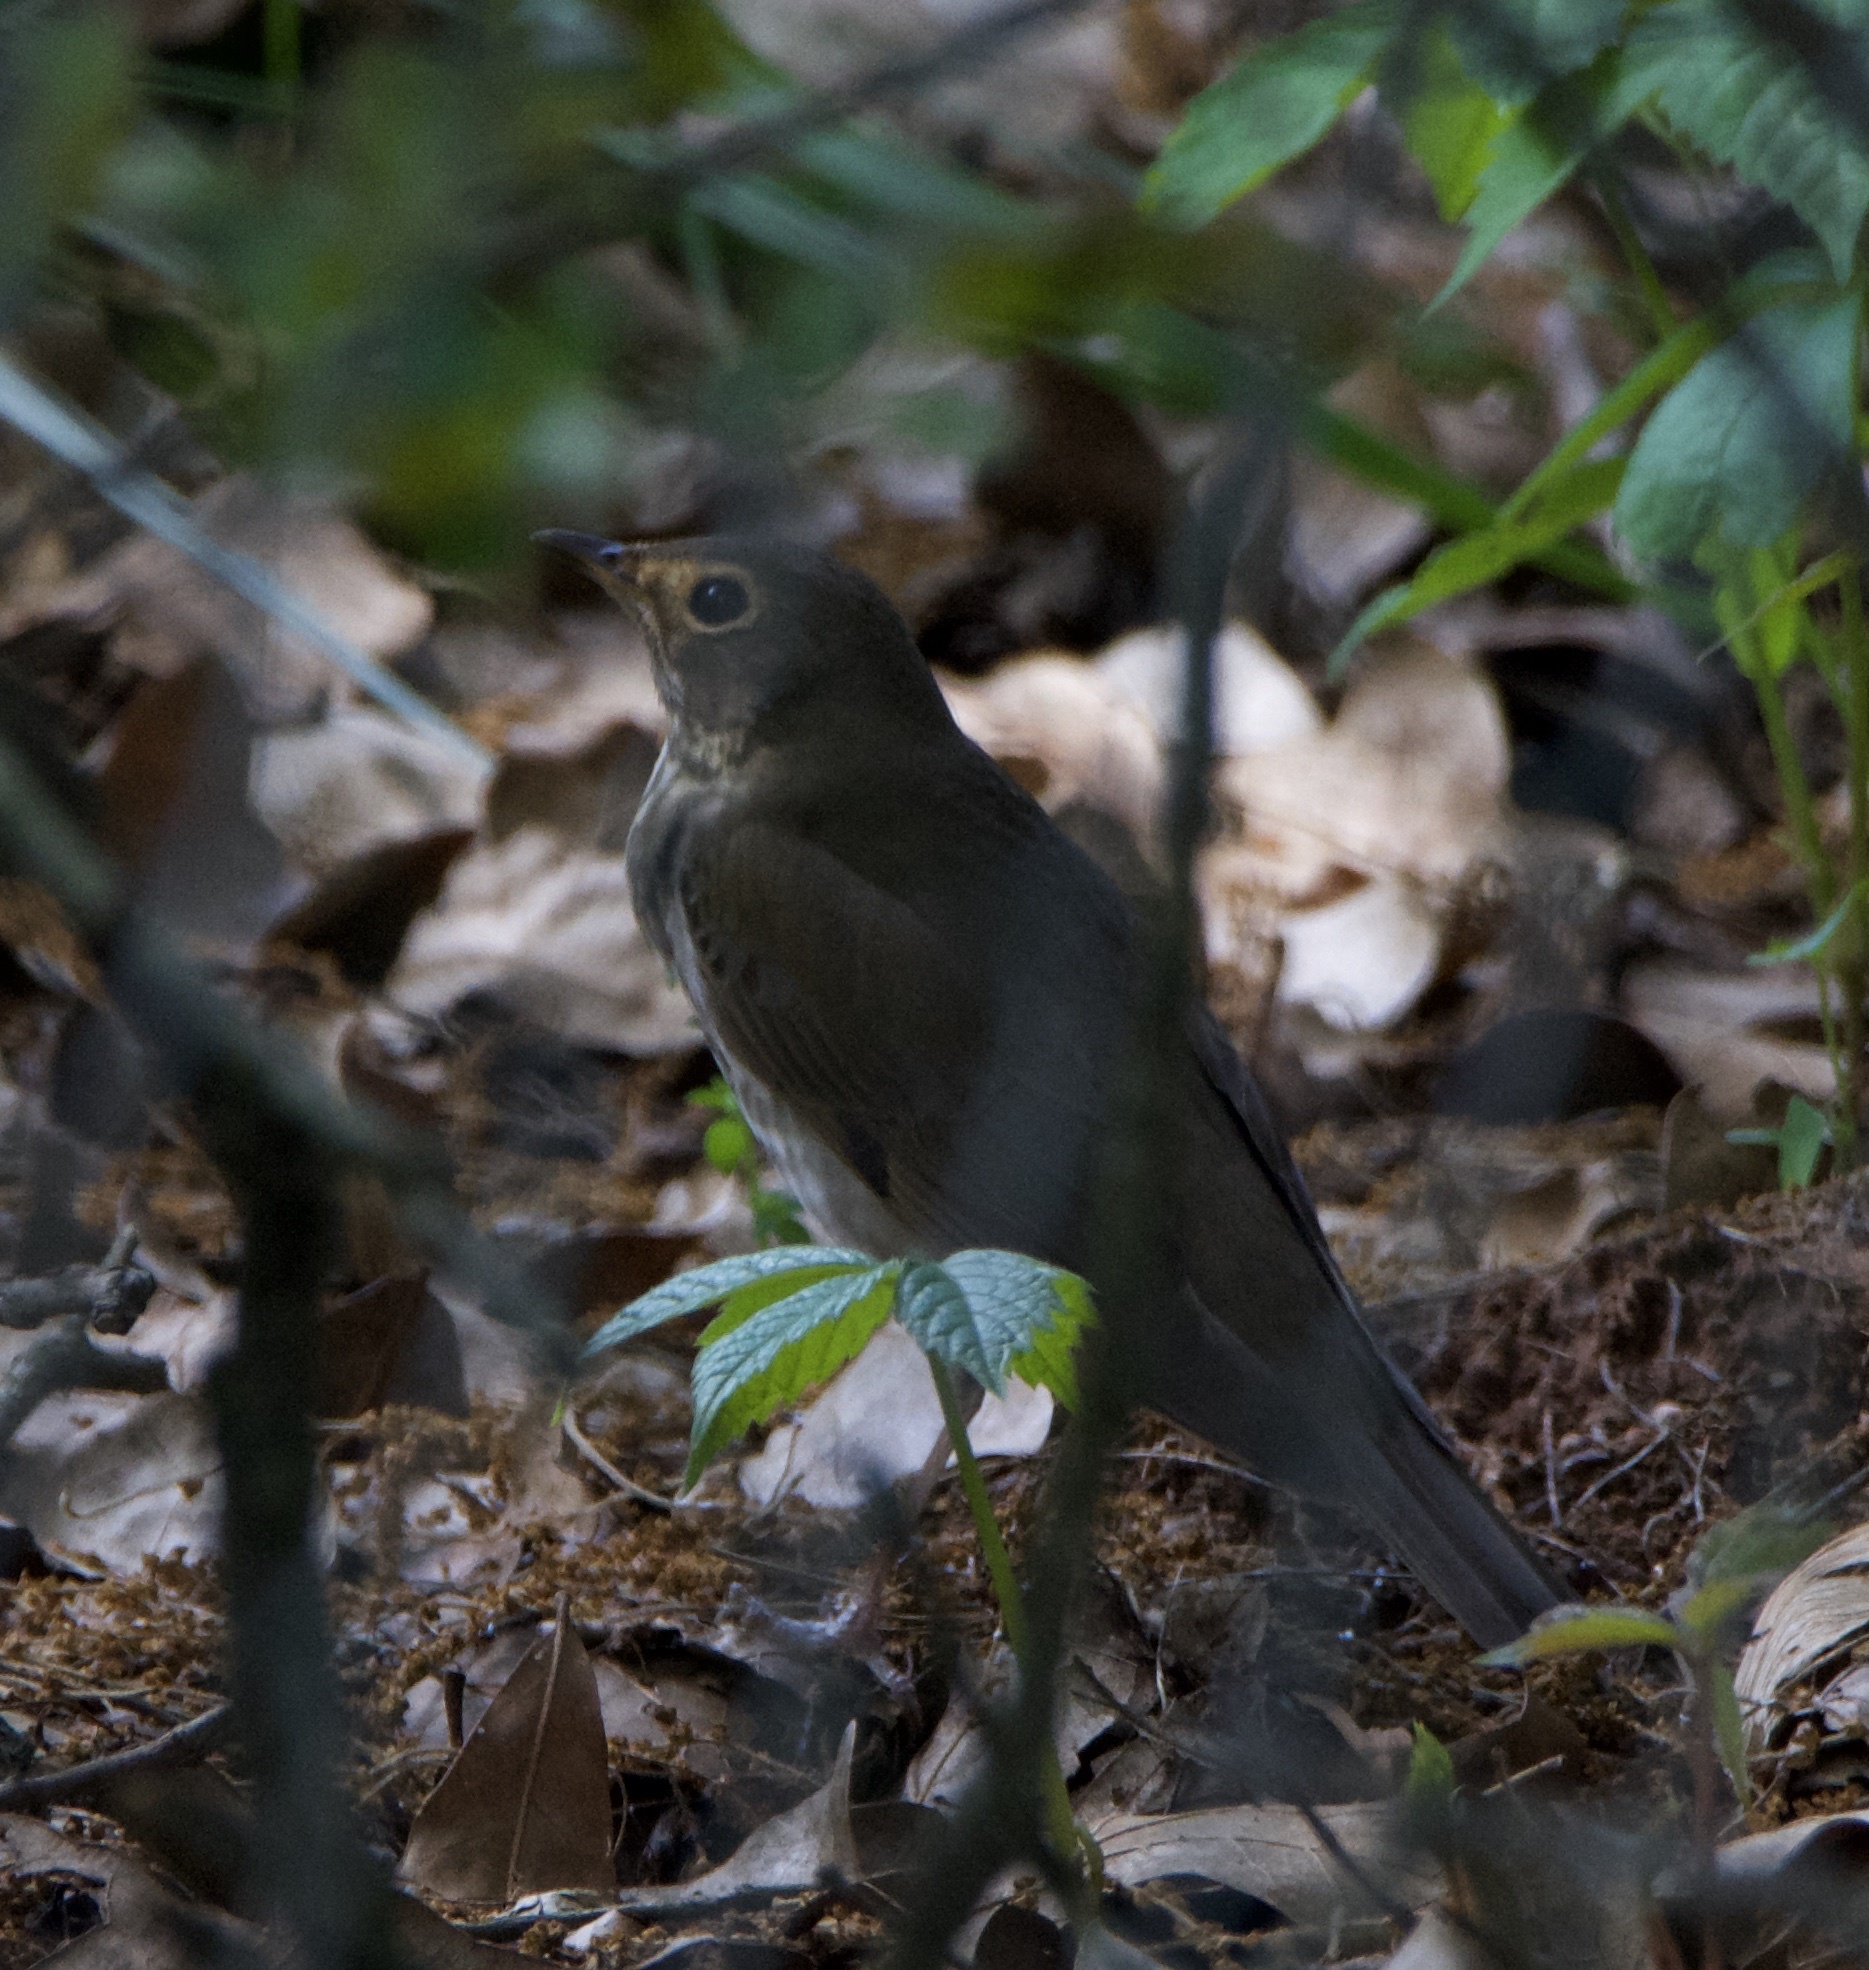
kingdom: Animalia
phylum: Chordata
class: Aves
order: Passeriformes
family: Turdidae
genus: Catharus
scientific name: Catharus ustulatus
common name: Swainson's thrush
